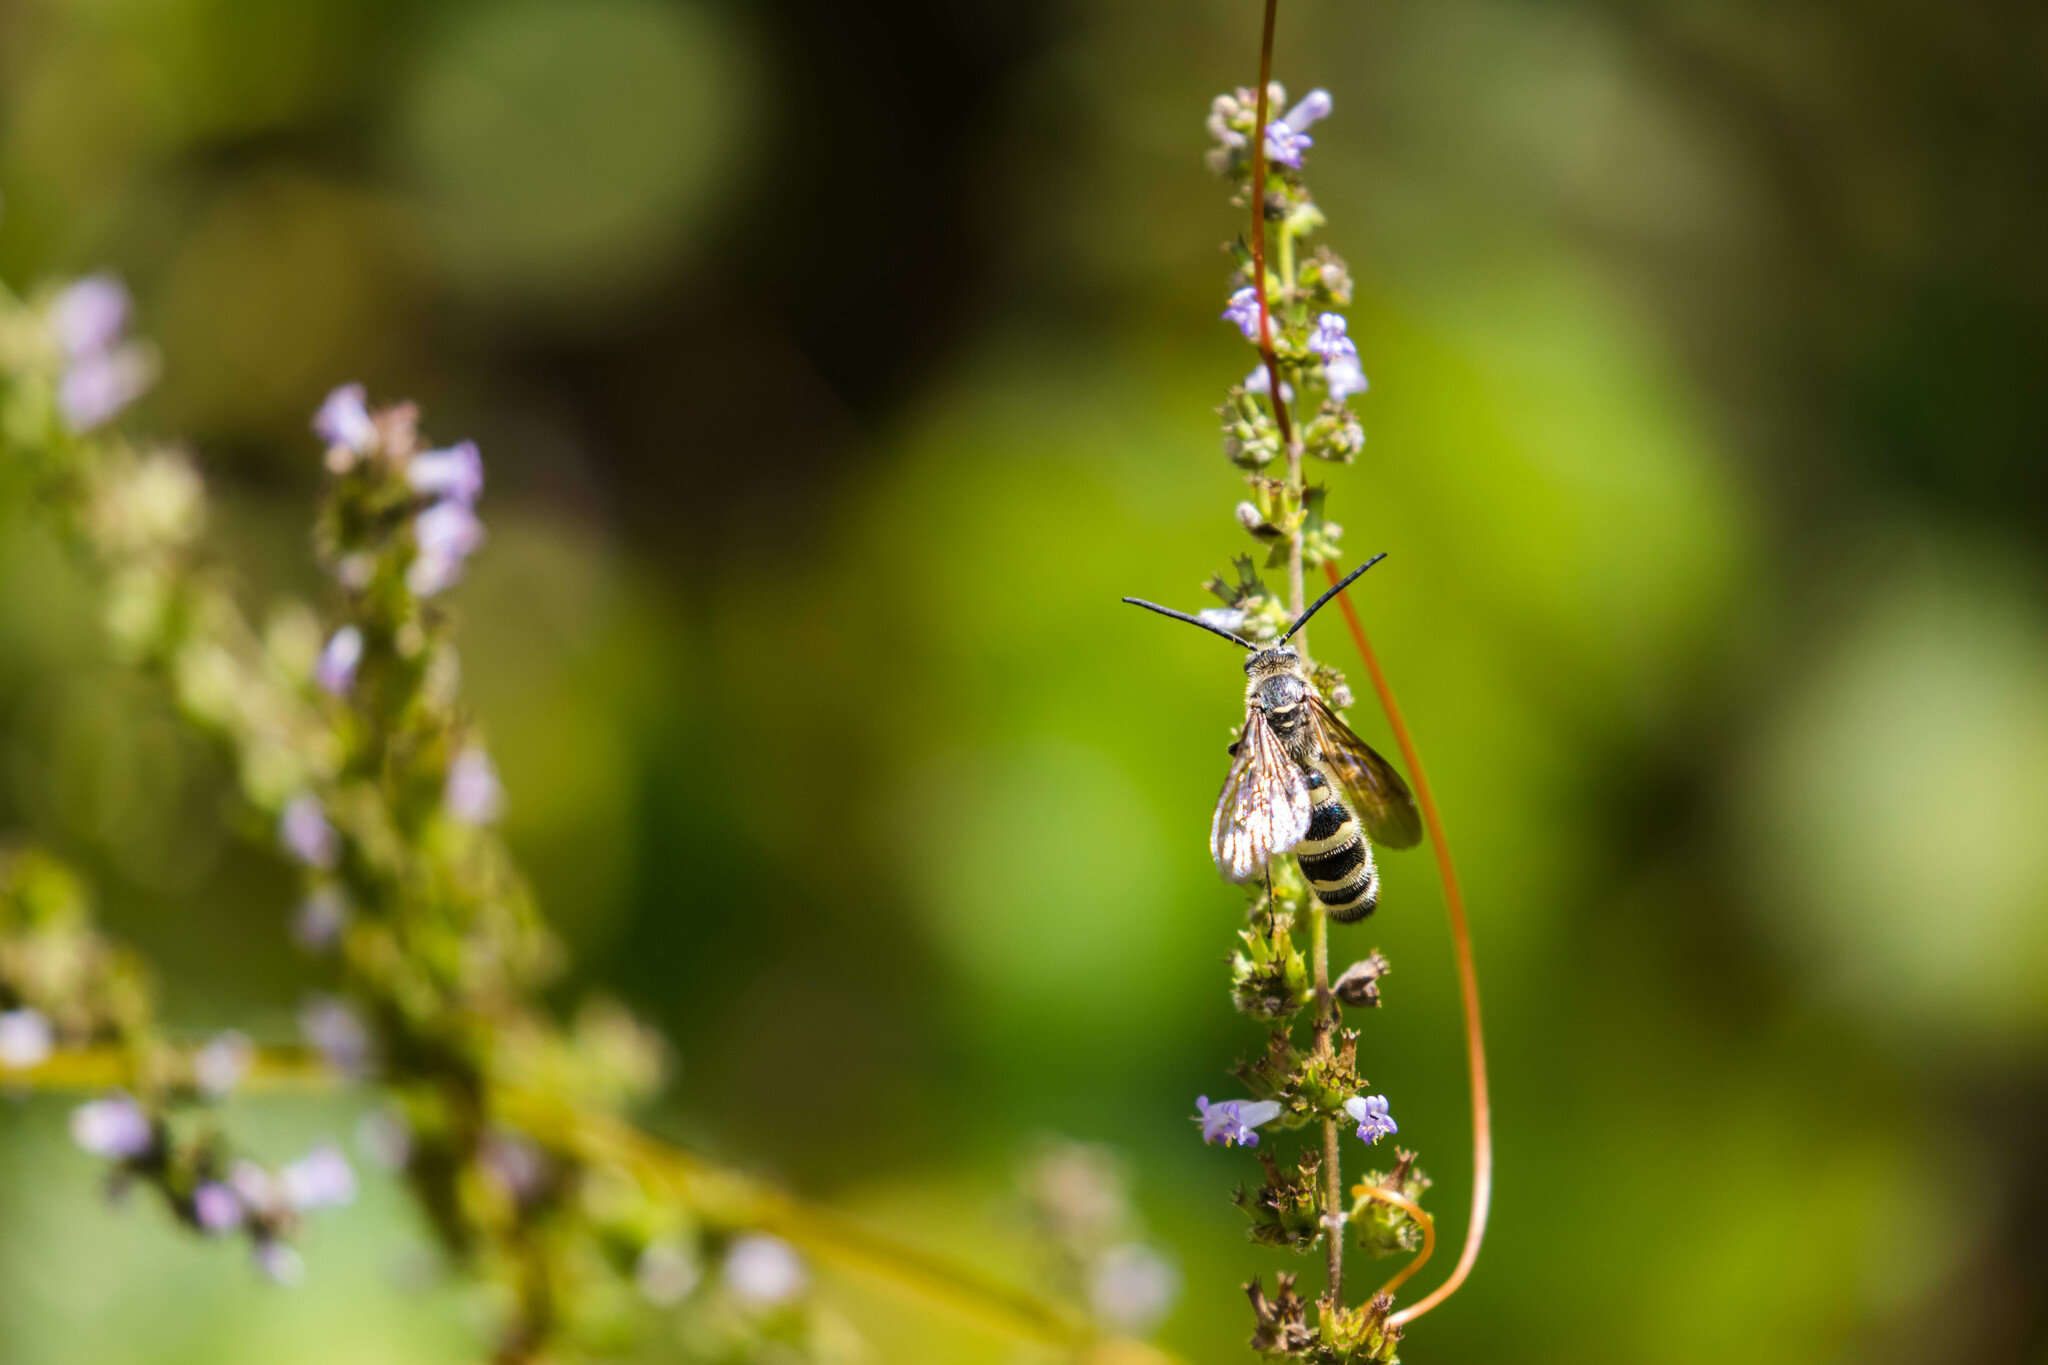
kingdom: Animalia
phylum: Arthropoda
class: Insecta
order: Hymenoptera
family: Scoliidae
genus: Dielis
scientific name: Dielis
